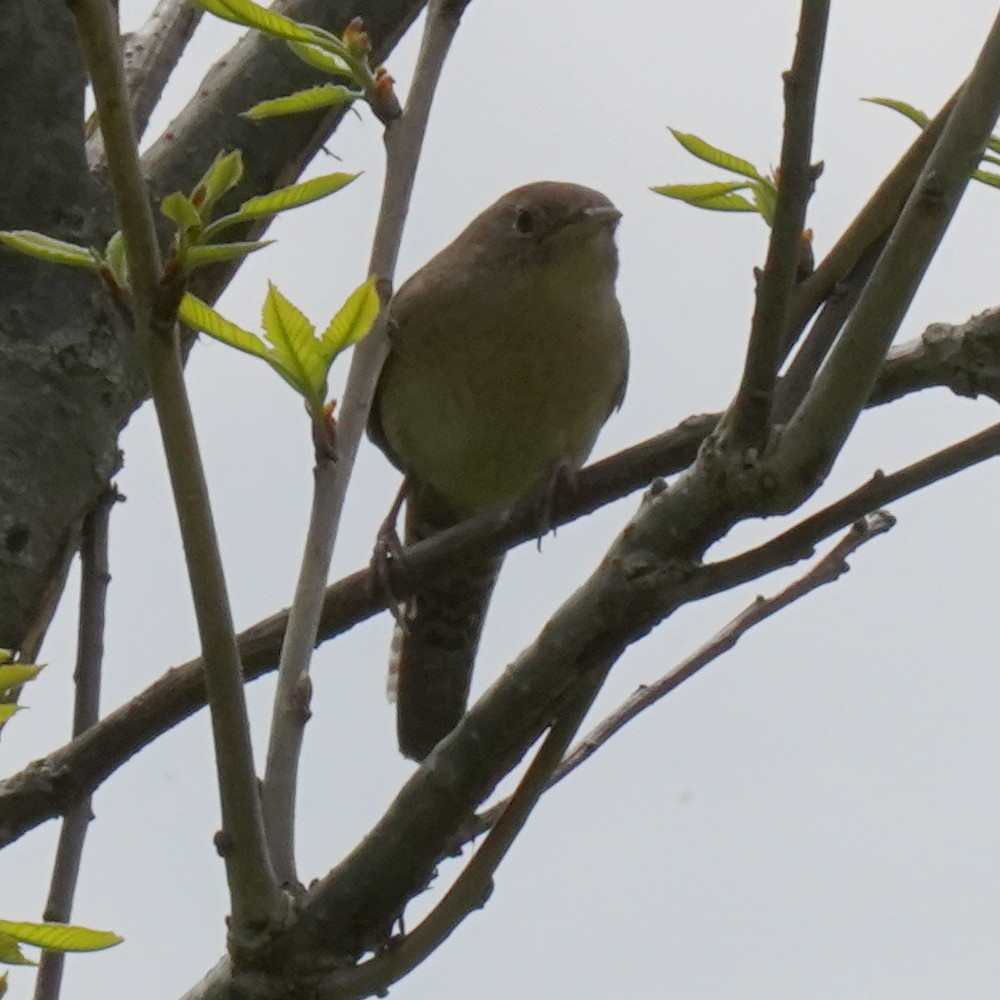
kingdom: Animalia
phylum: Chordata
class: Aves
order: Passeriformes
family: Troglodytidae
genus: Troglodytes
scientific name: Troglodytes aedon
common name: House wren
